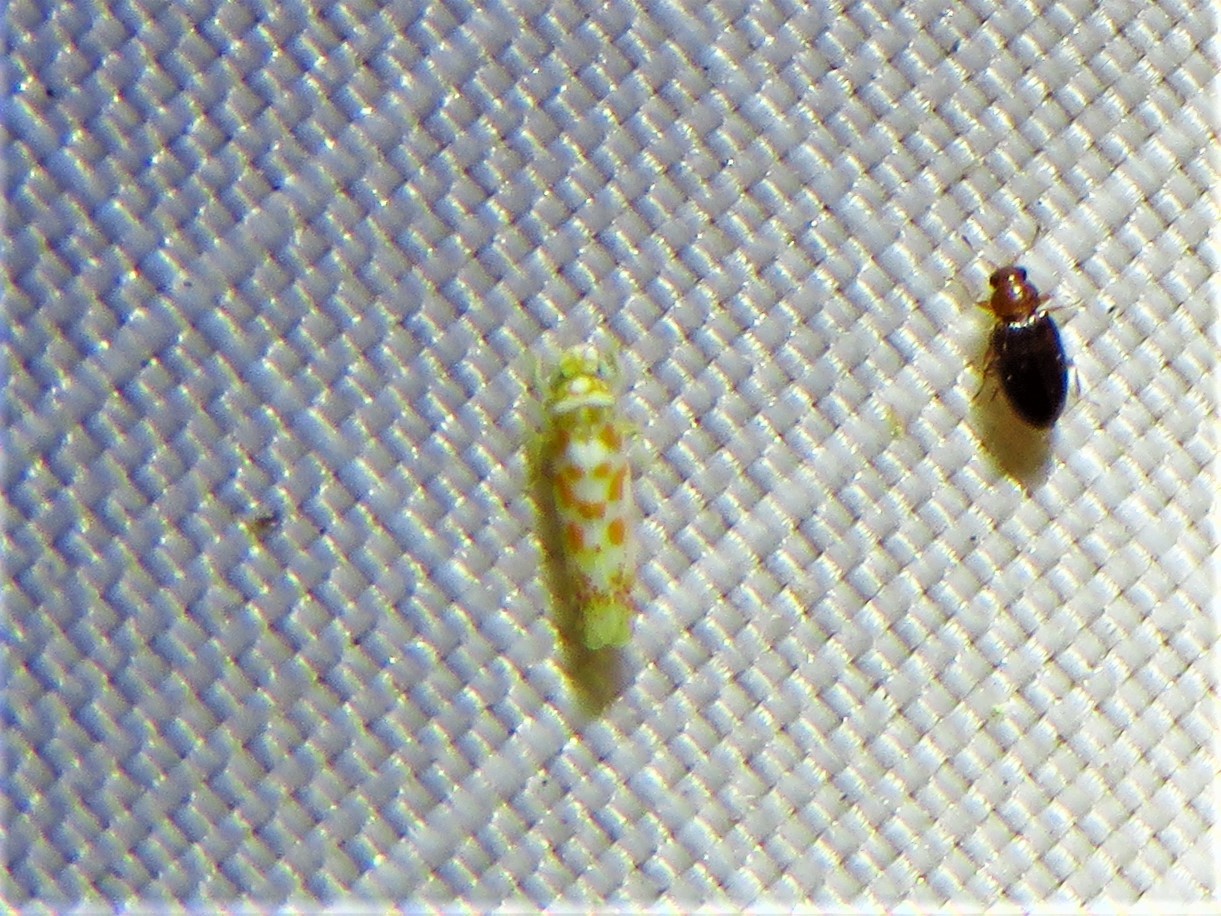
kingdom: Animalia
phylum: Arthropoda
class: Insecta
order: Hemiptera
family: Cicadellidae
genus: Dikrella
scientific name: Dikrella maculata
